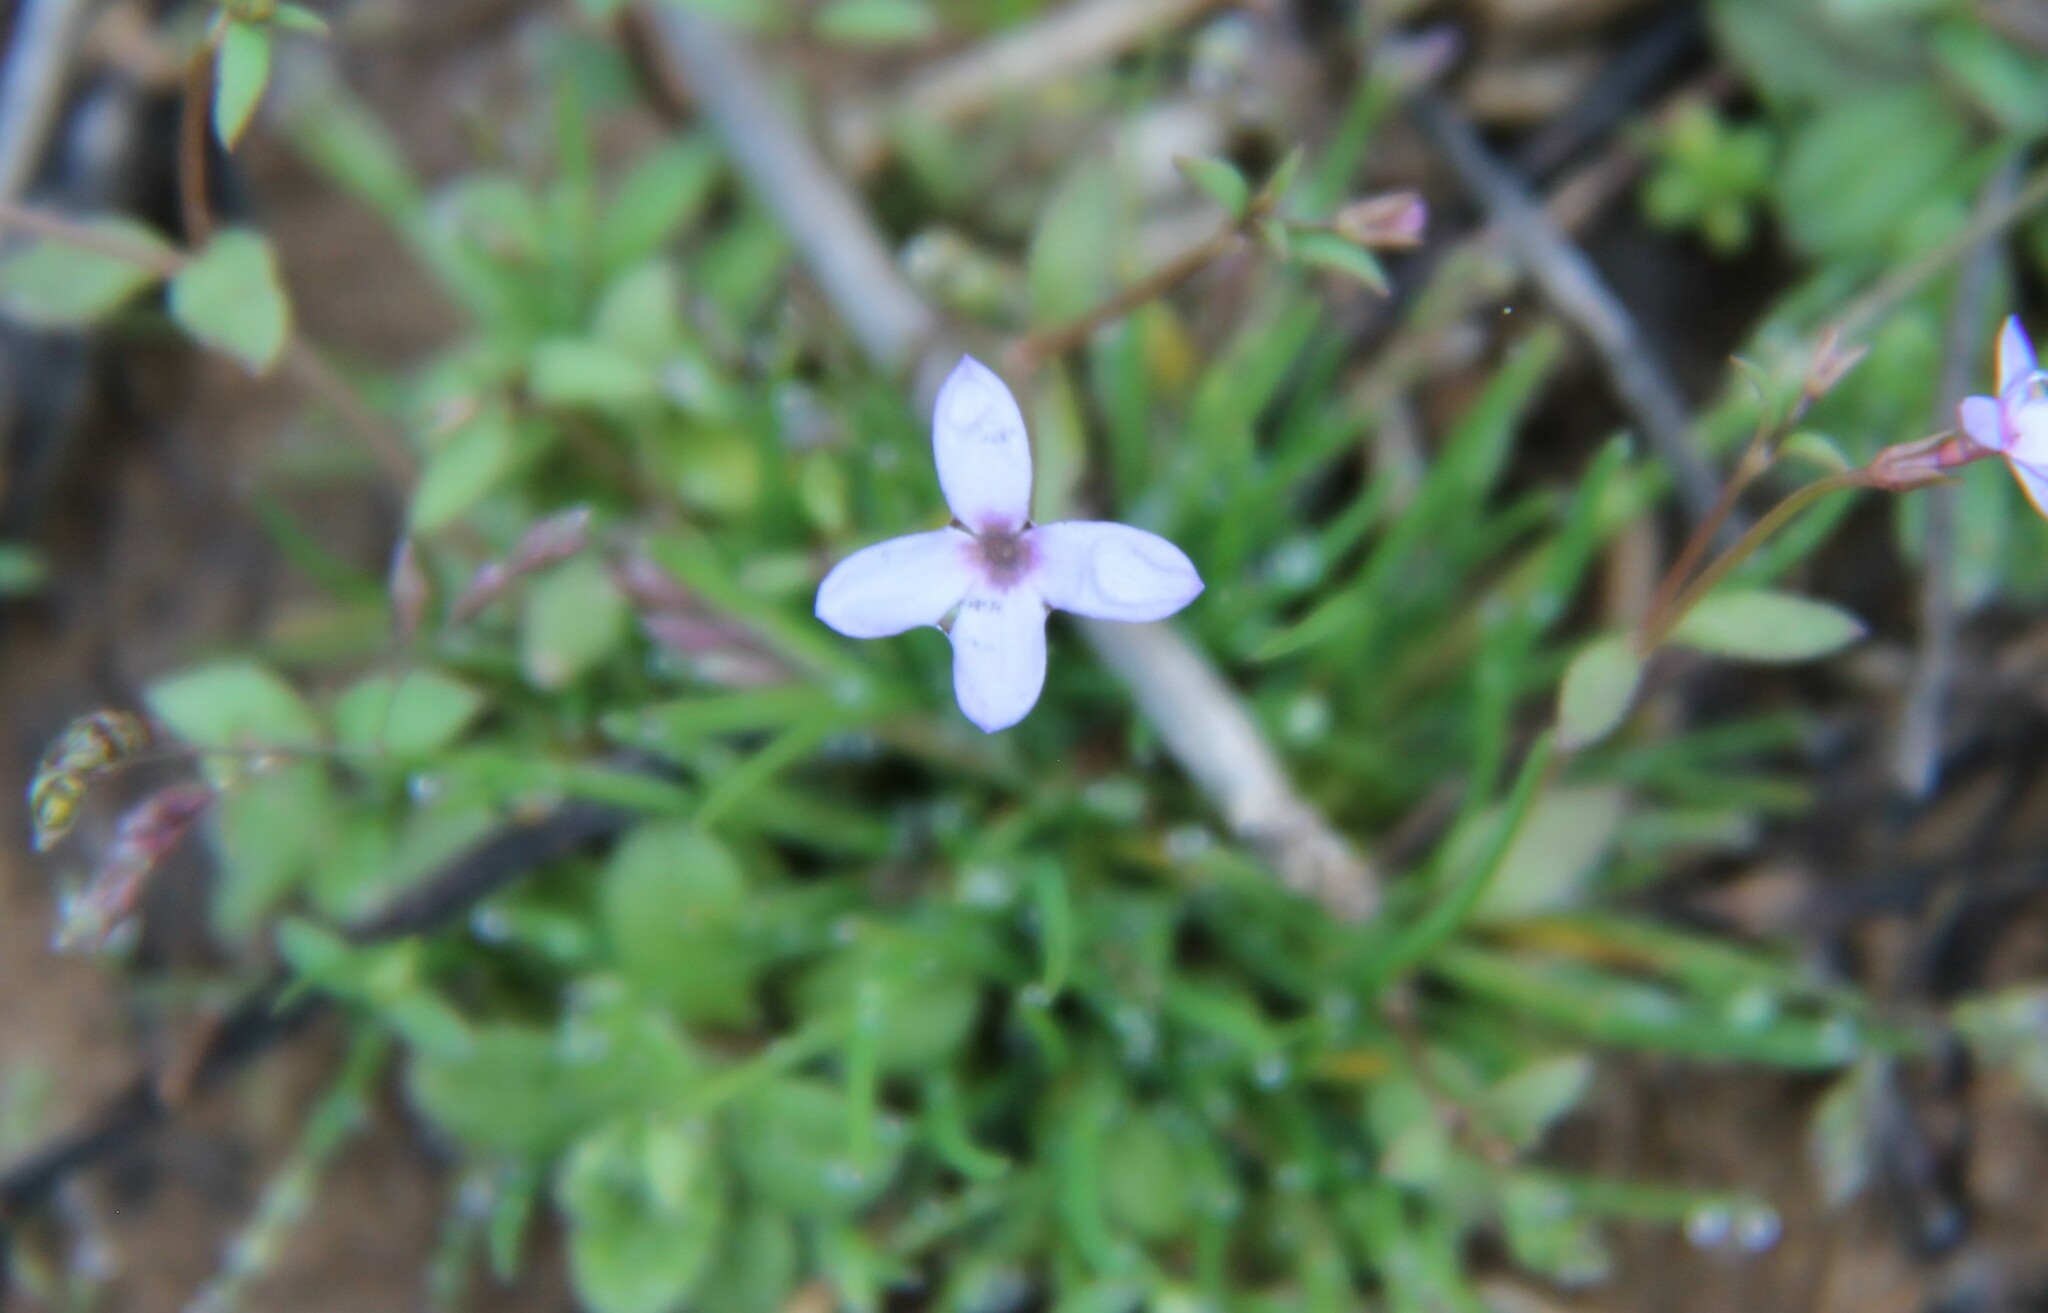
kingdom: Plantae
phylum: Tracheophyta
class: Magnoliopsida
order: Gentianales
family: Rubiaceae
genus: Houstonia
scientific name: Houstonia pusilla
